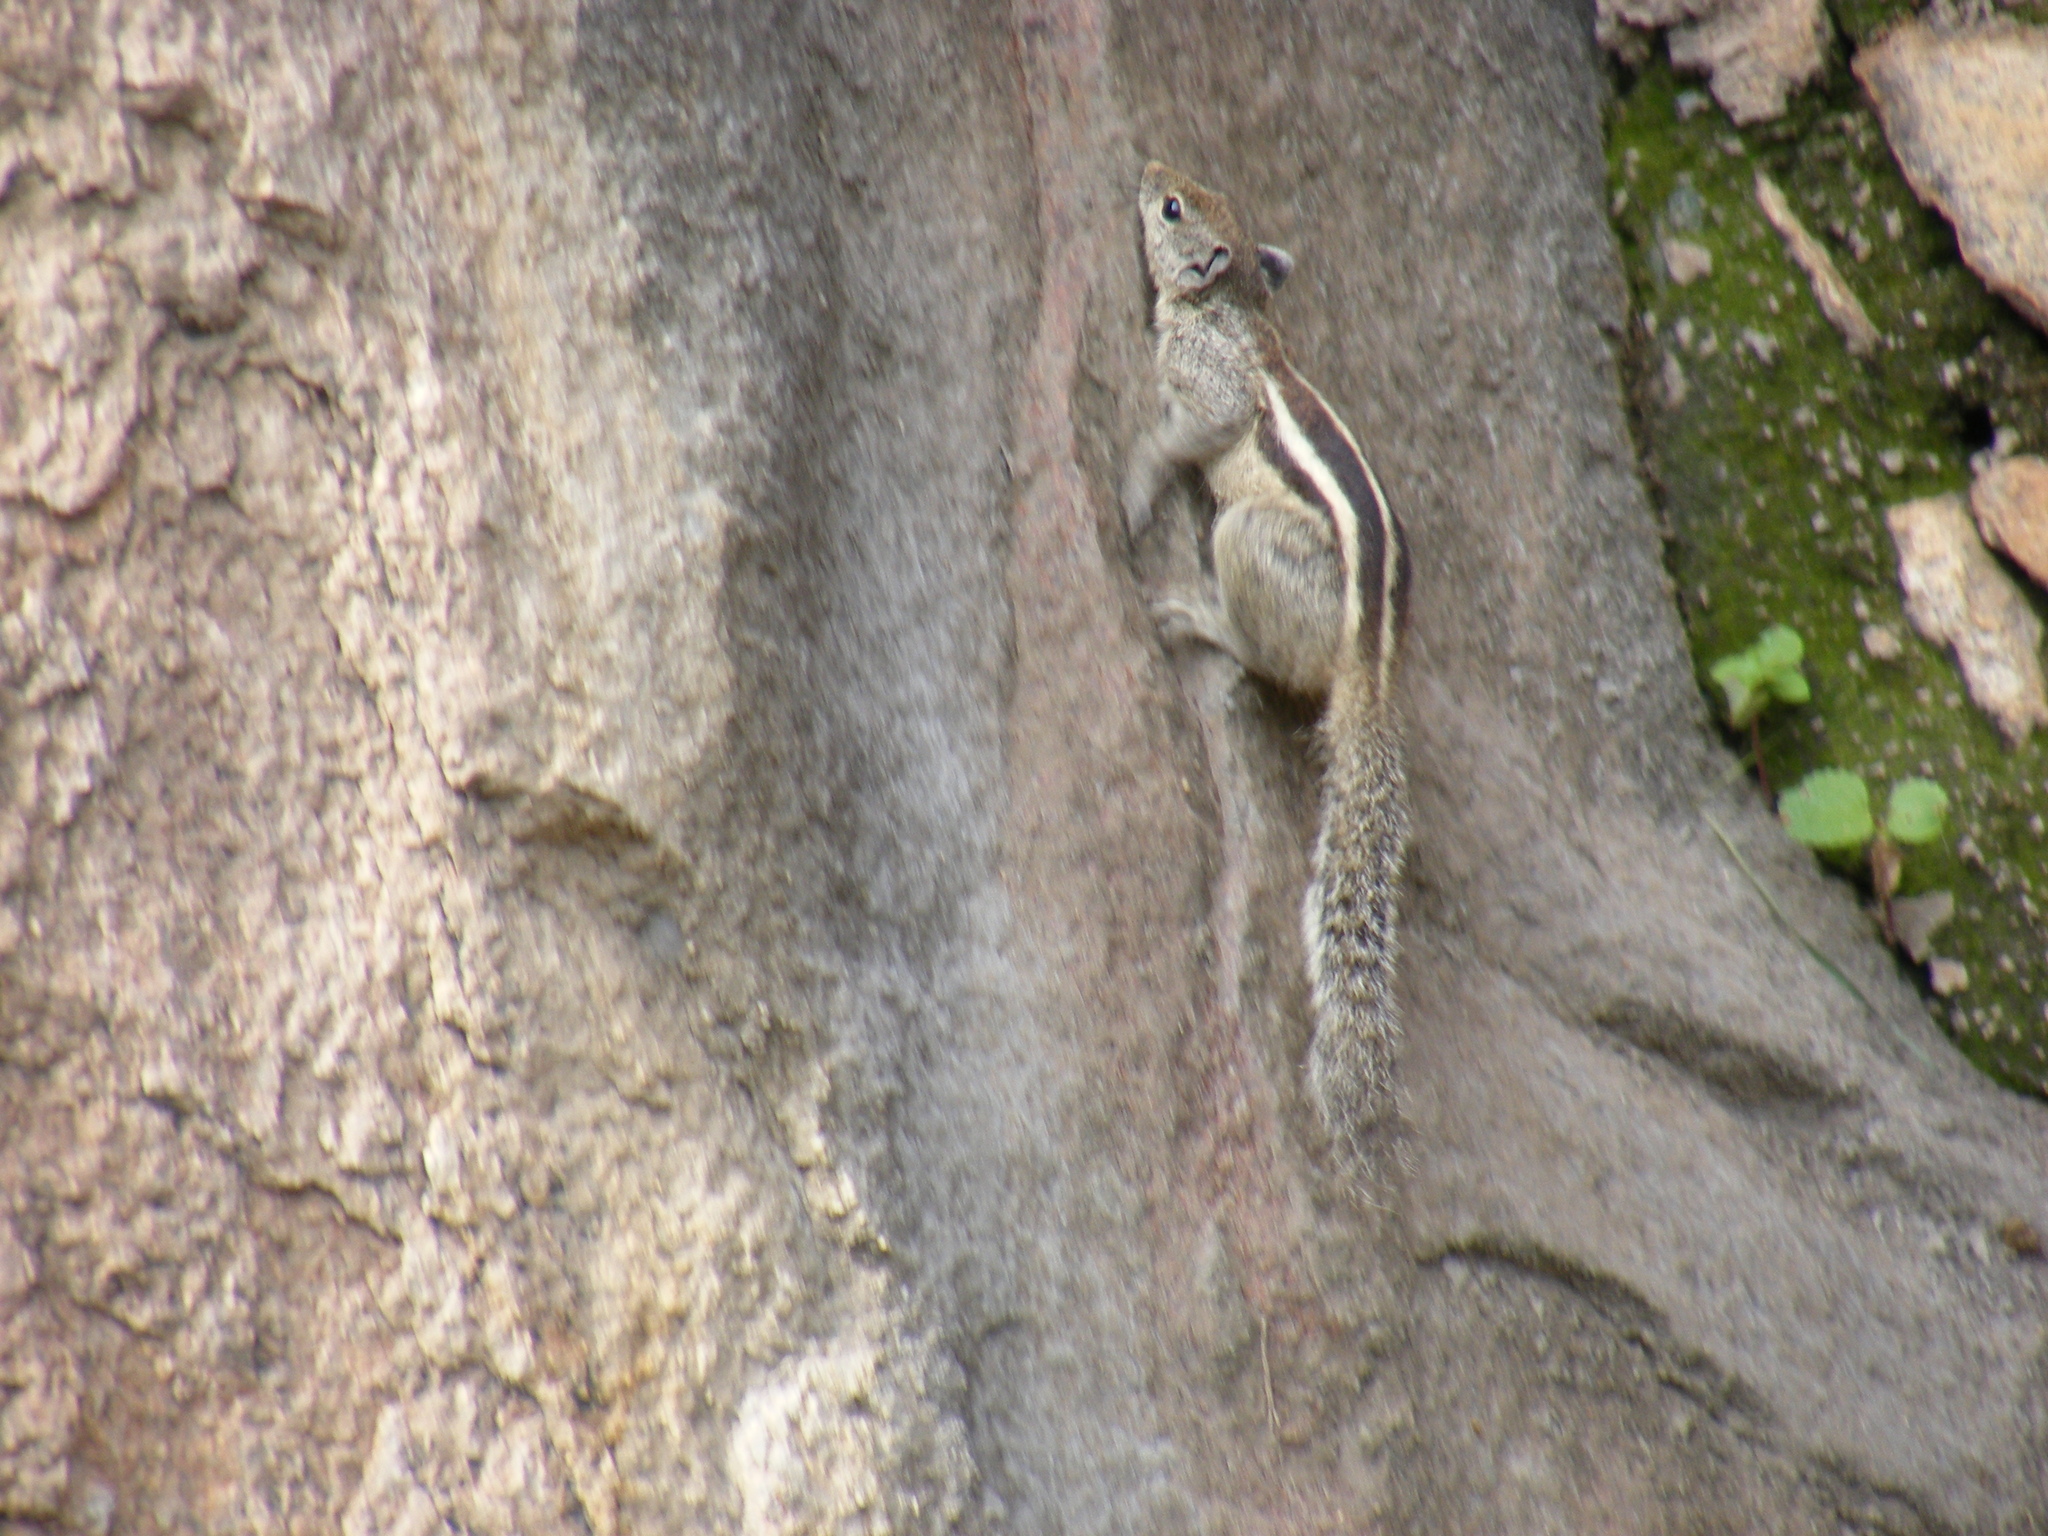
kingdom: Animalia
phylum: Chordata
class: Mammalia
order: Rodentia
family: Sciuridae
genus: Funambulus
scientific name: Funambulus pennantii
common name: Northern palm squirrel
